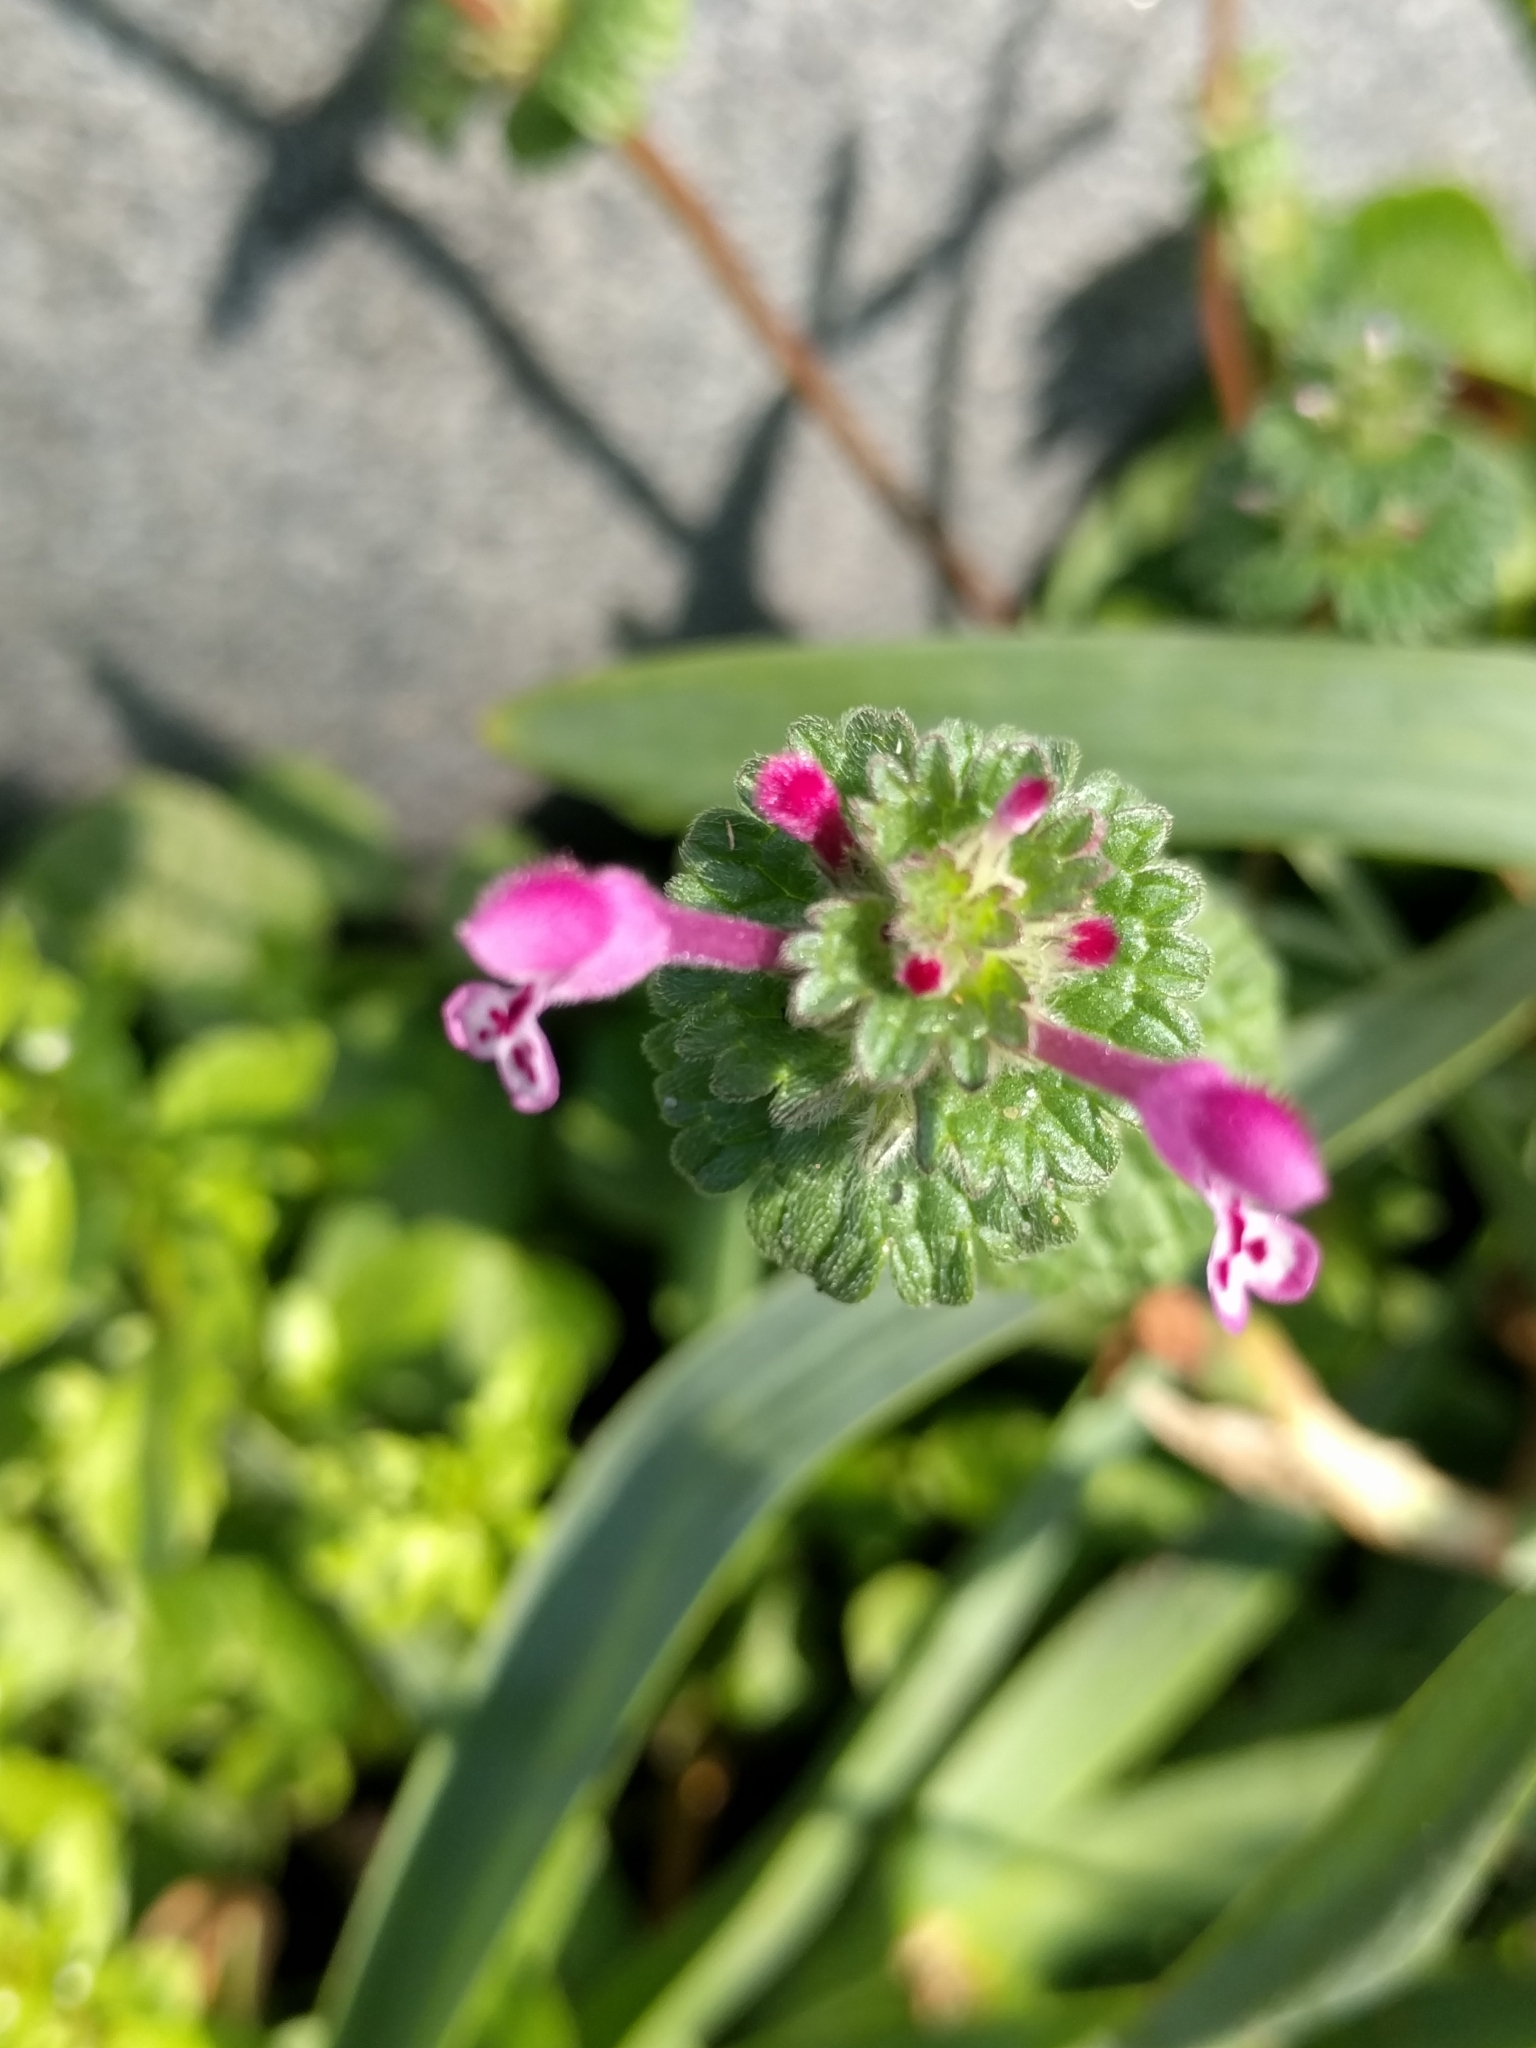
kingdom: Plantae
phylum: Tracheophyta
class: Magnoliopsida
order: Lamiales
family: Lamiaceae
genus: Lamium
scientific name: Lamium amplexicaule
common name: Henbit dead-nettle
